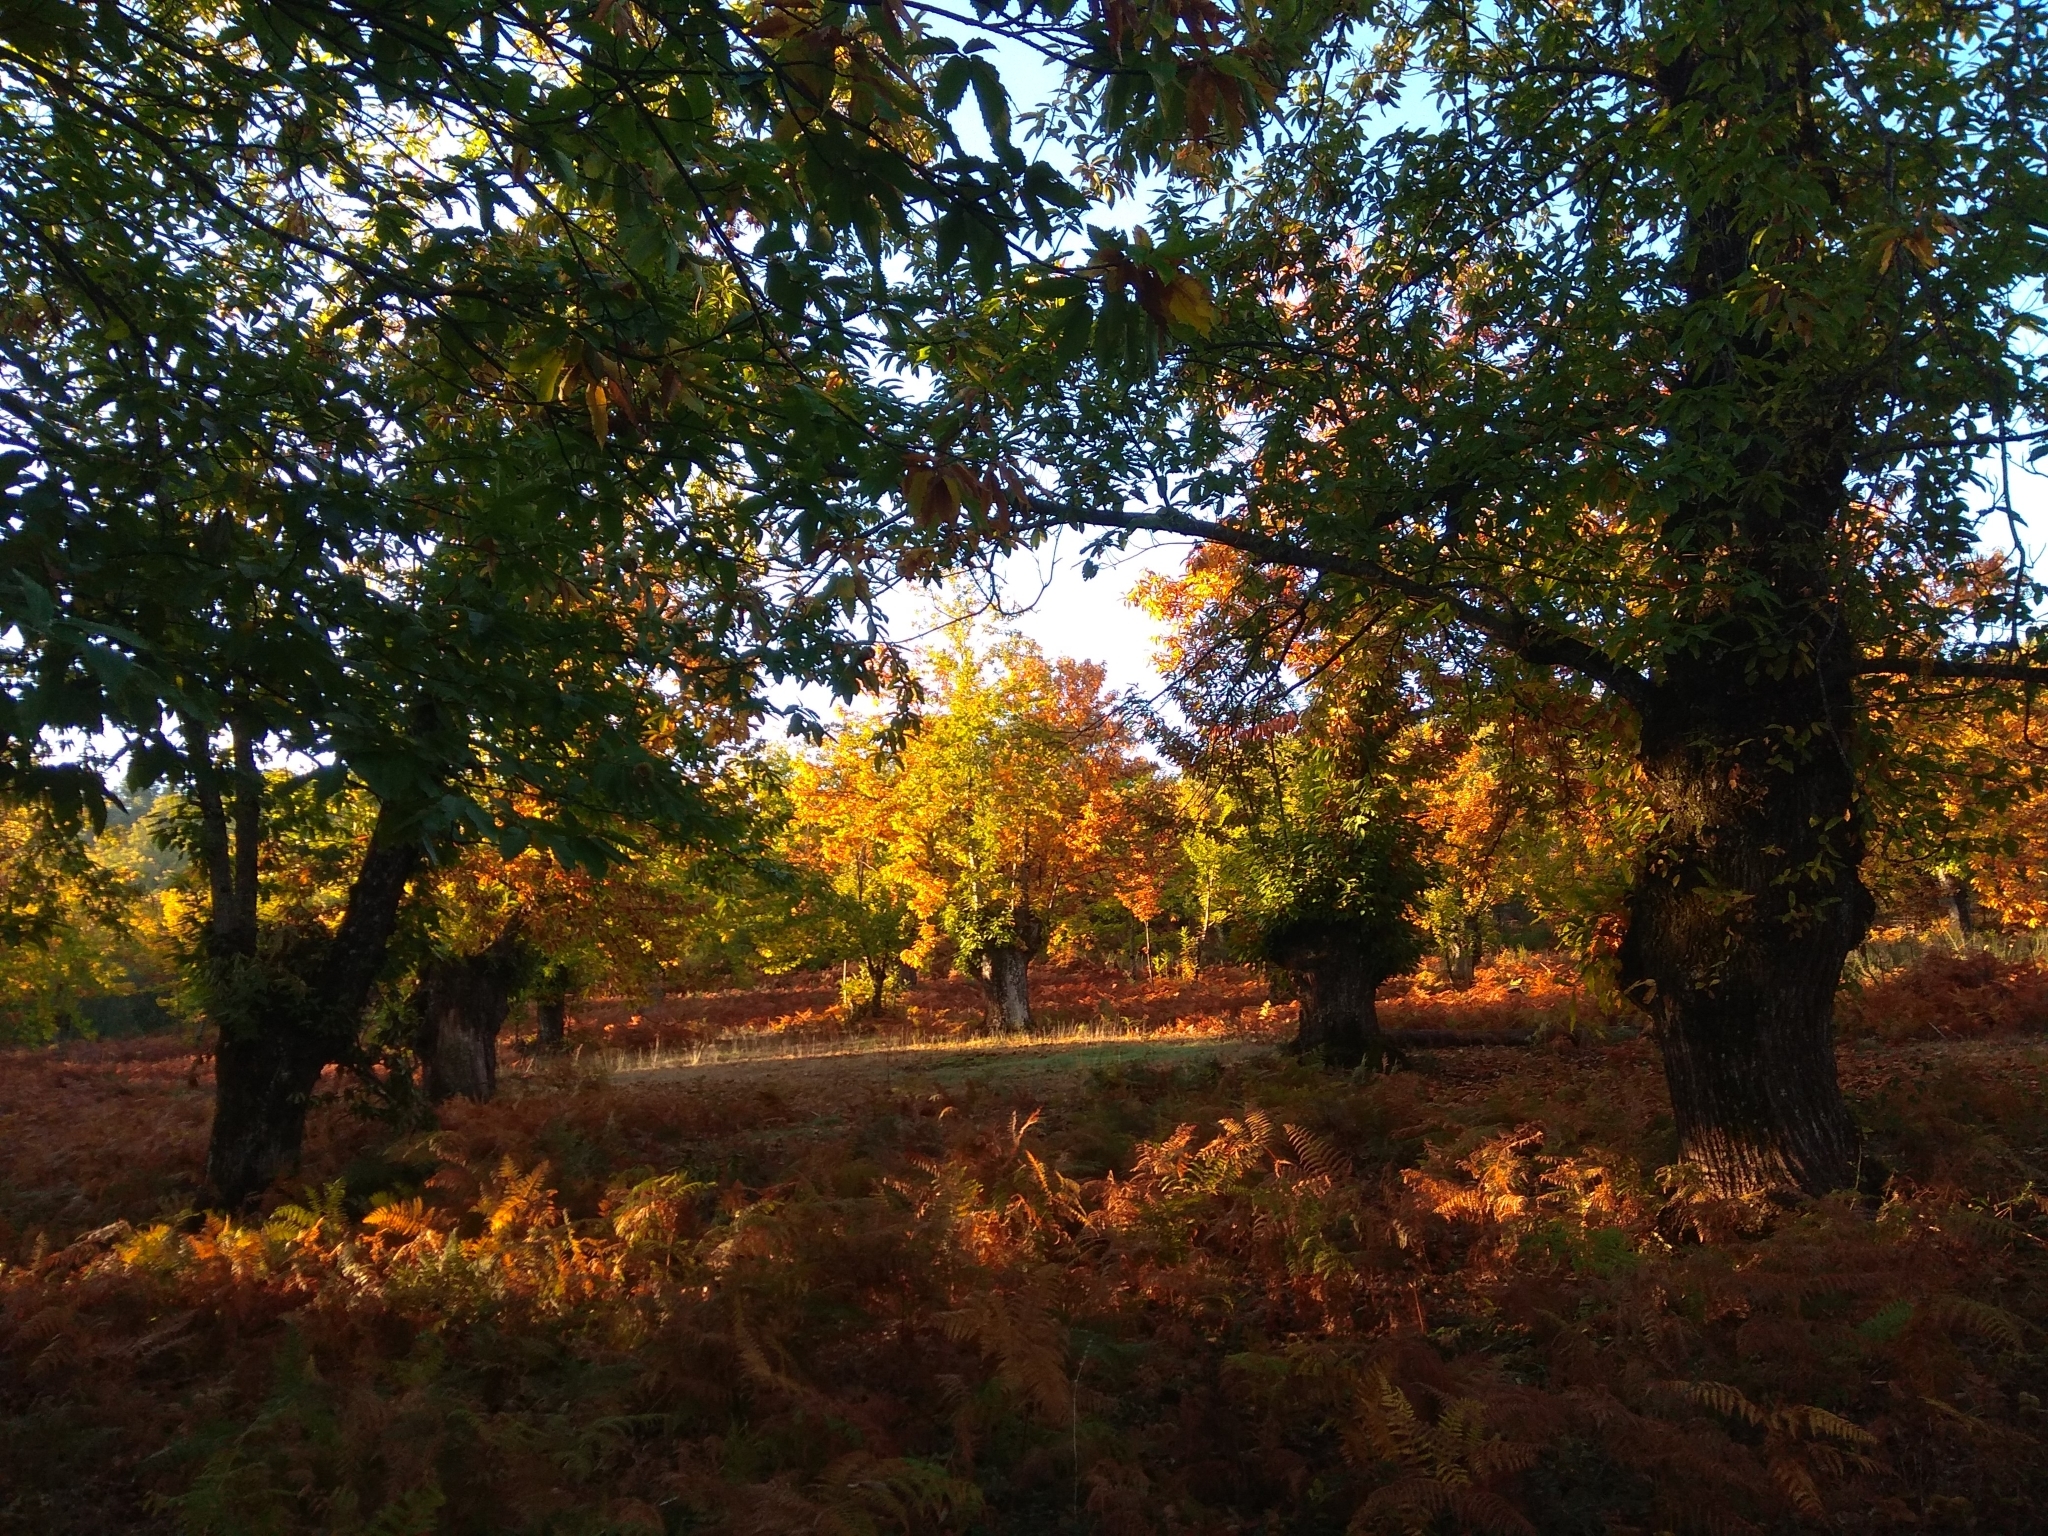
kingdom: Plantae
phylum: Tracheophyta
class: Magnoliopsida
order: Fagales
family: Fagaceae
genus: Castanea
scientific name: Castanea sativa
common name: Sweet chestnut
